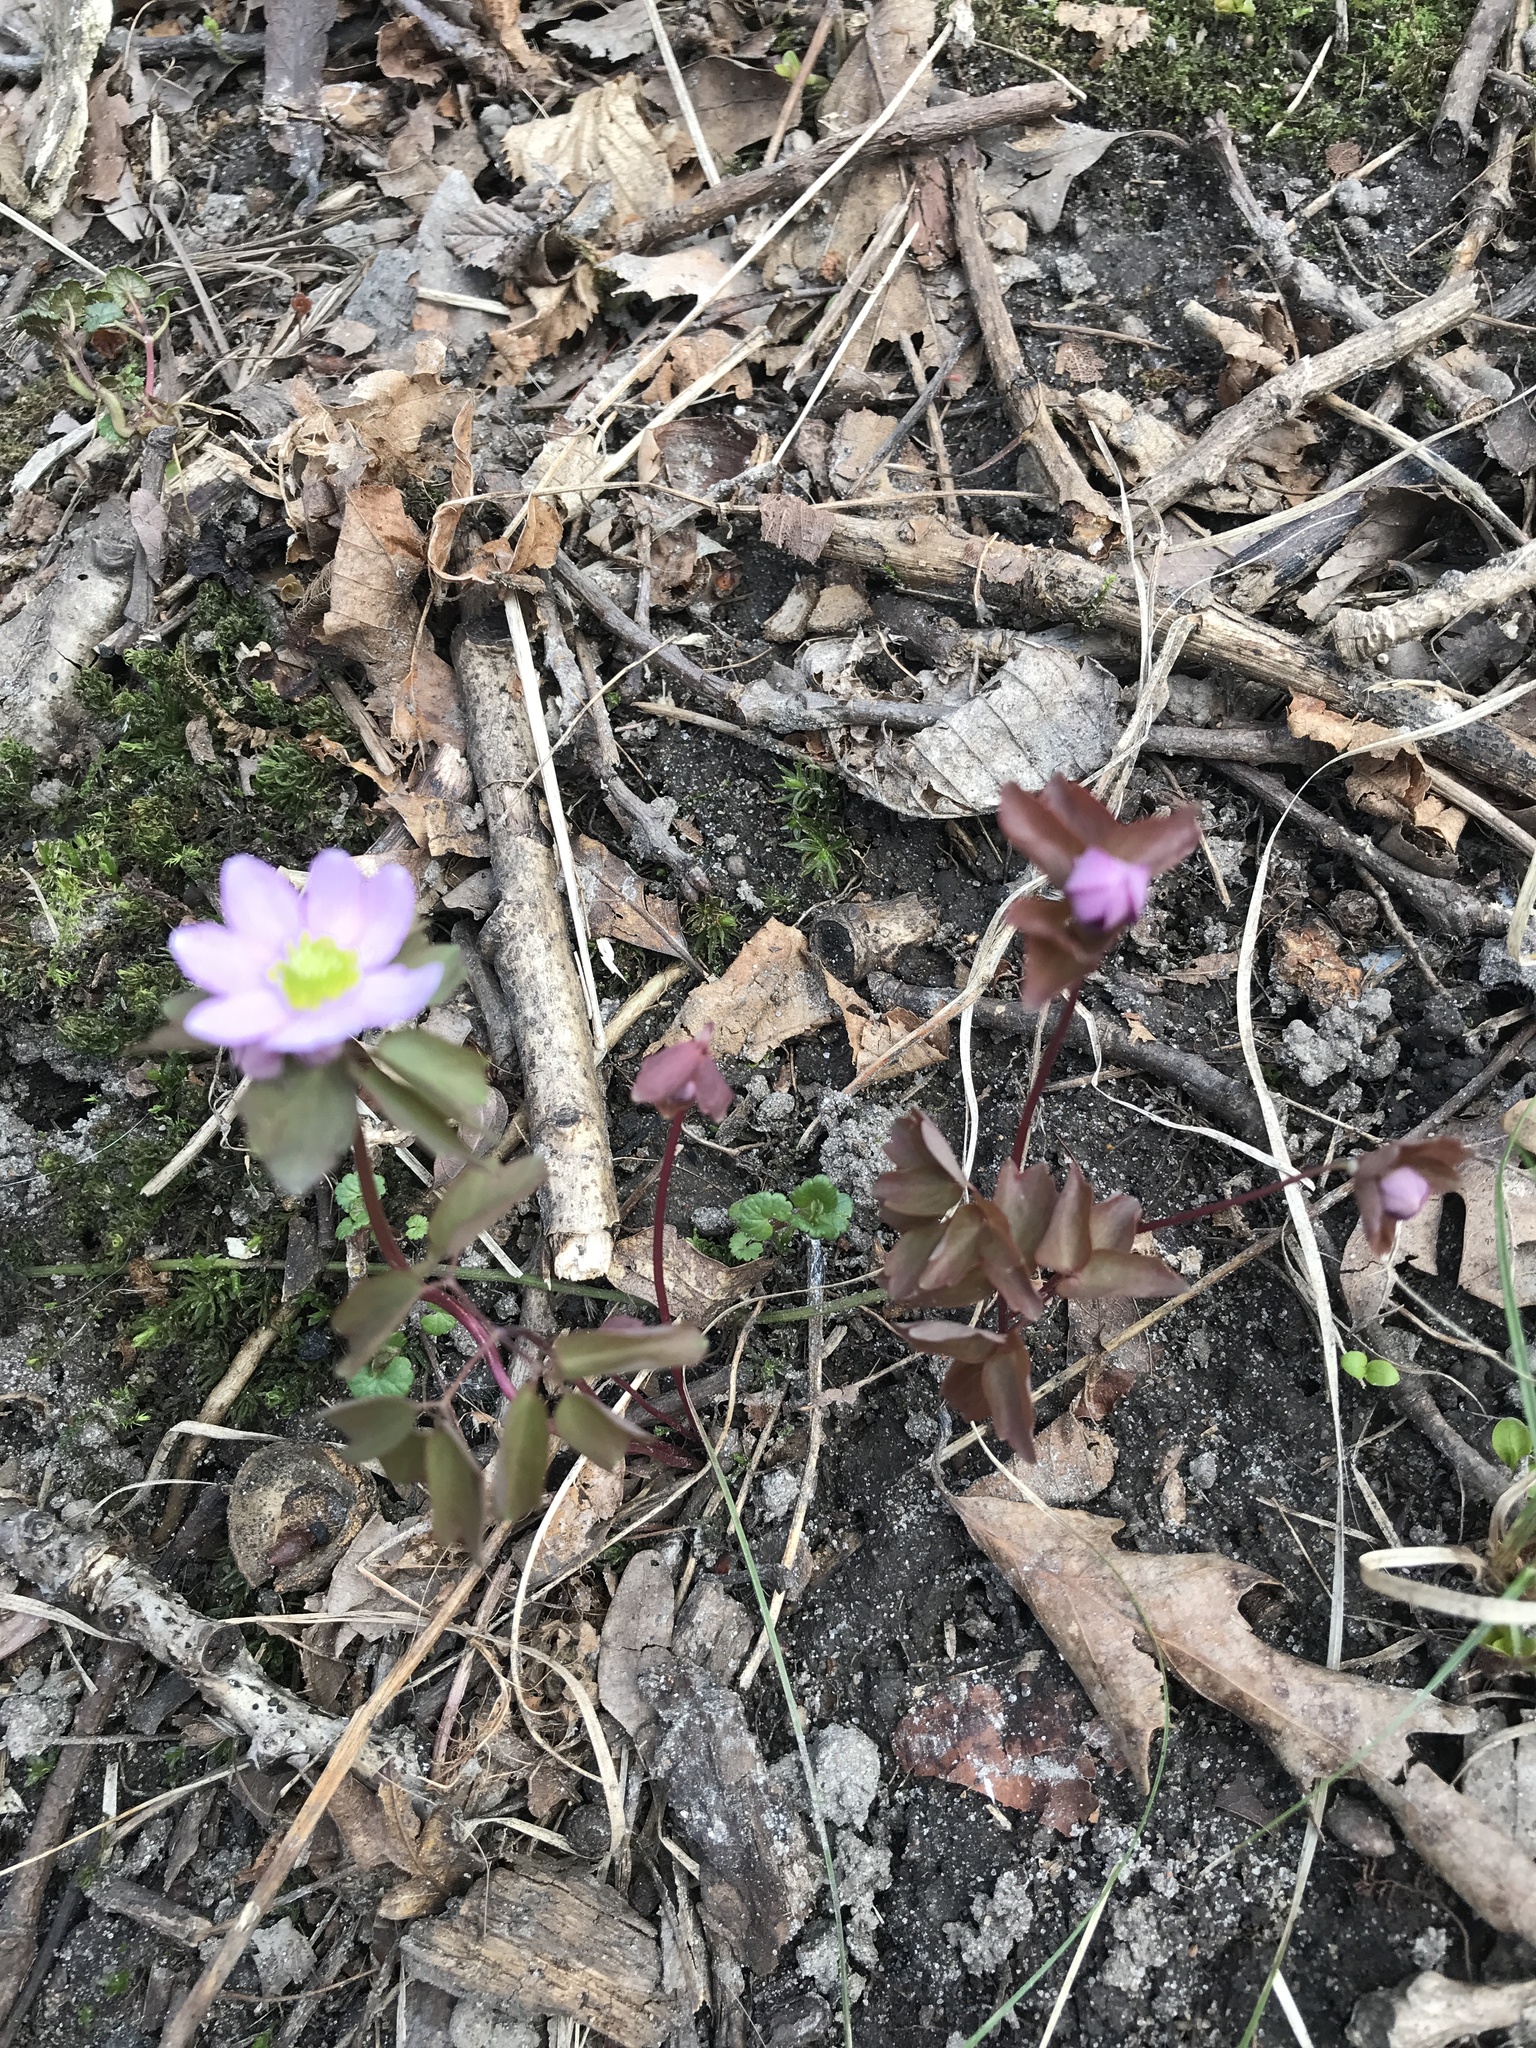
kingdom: Plantae
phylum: Tracheophyta
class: Magnoliopsida
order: Ranunculales
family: Ranunculaceae
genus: Thalictrum
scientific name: Thalictrum thalictroides
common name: Rue-anemone
